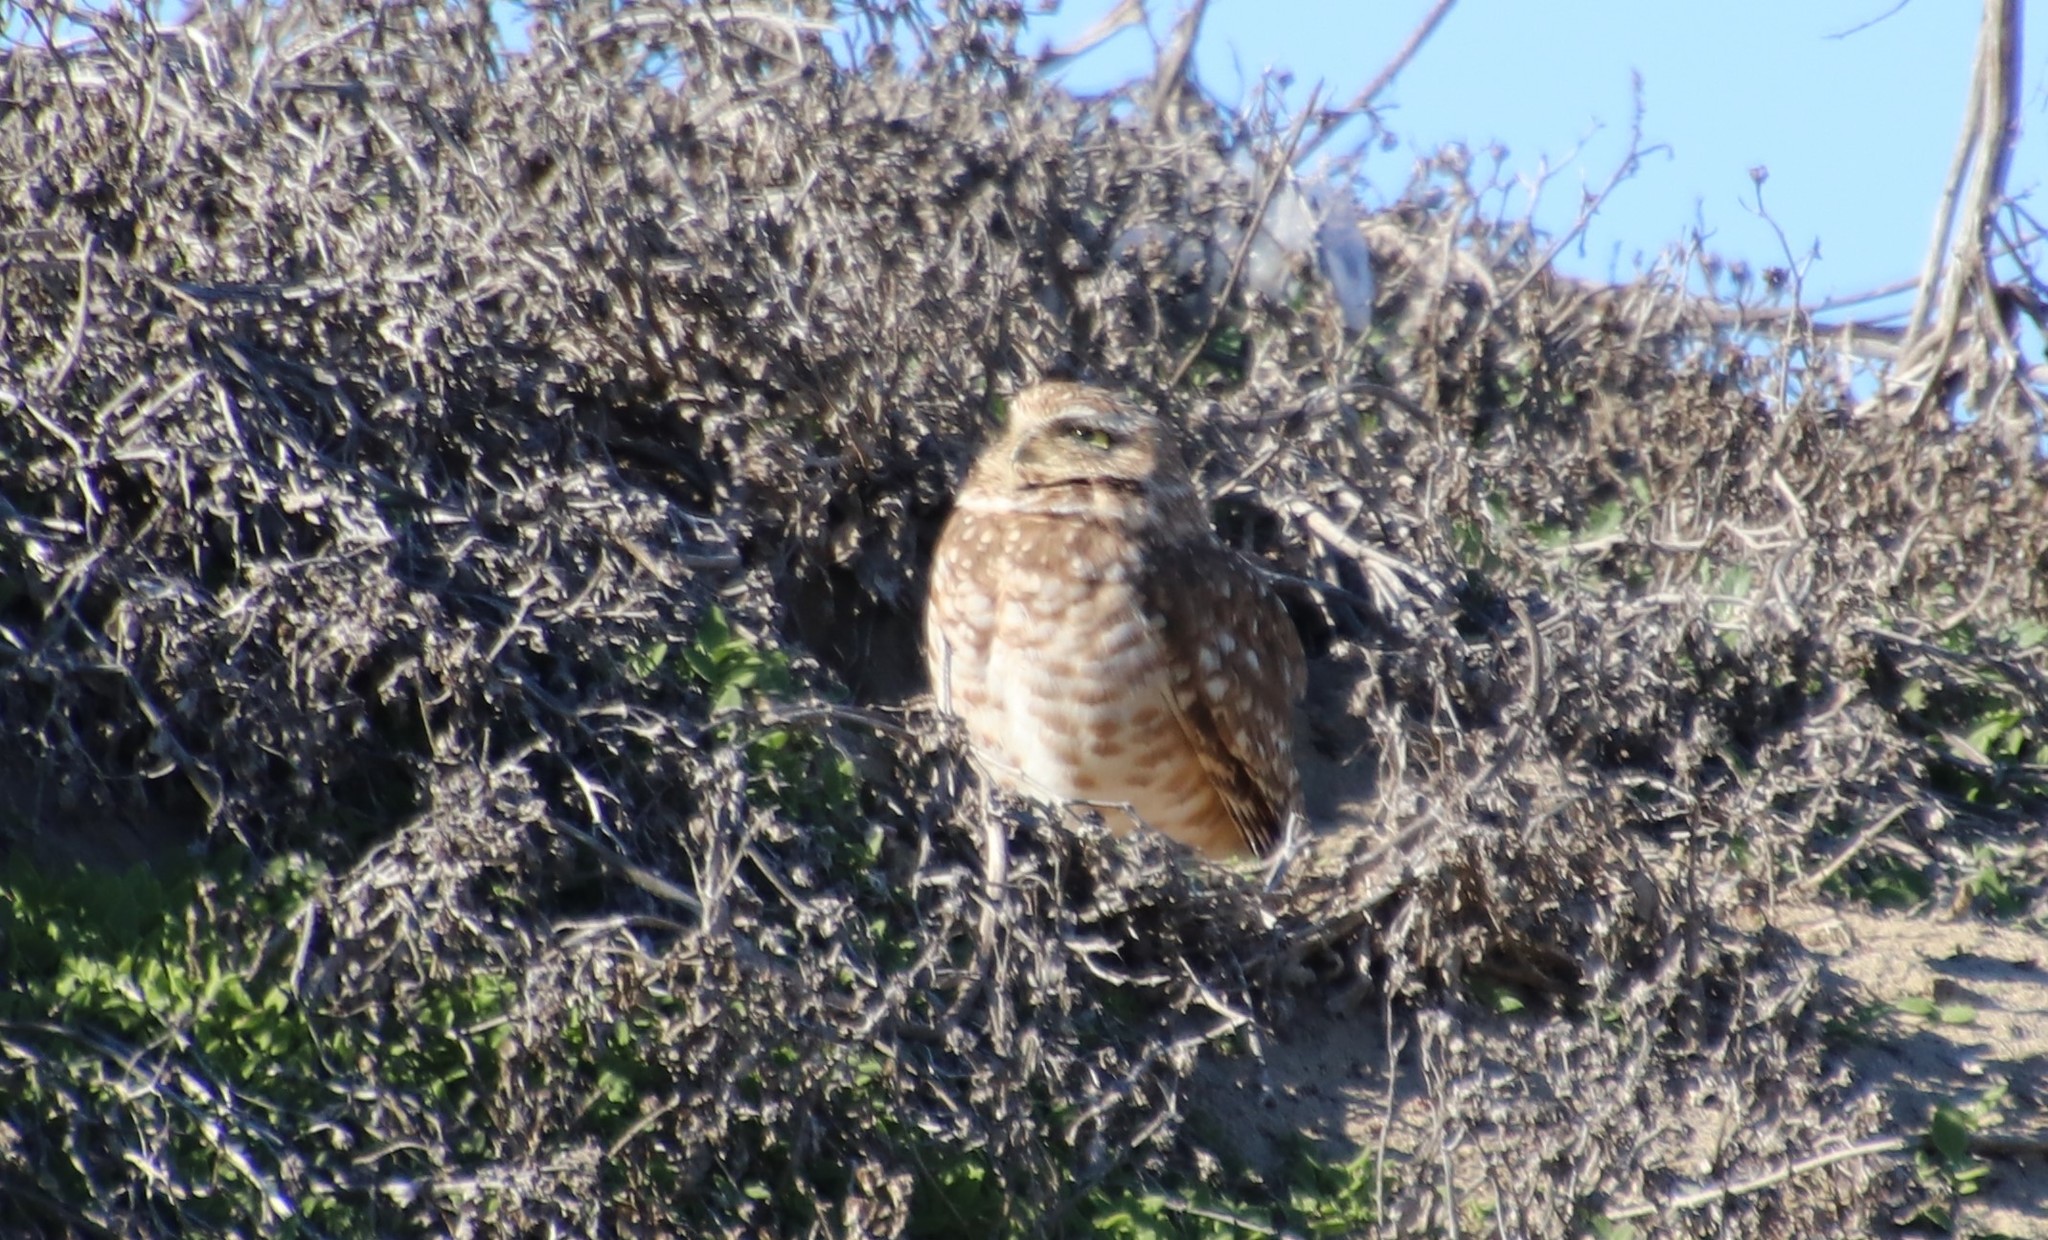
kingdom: Animalia
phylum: Chordata
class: Aves
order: Strigiformes
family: Strigidae
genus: Athene
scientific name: Athene cunicularia
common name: Burrowing owl
